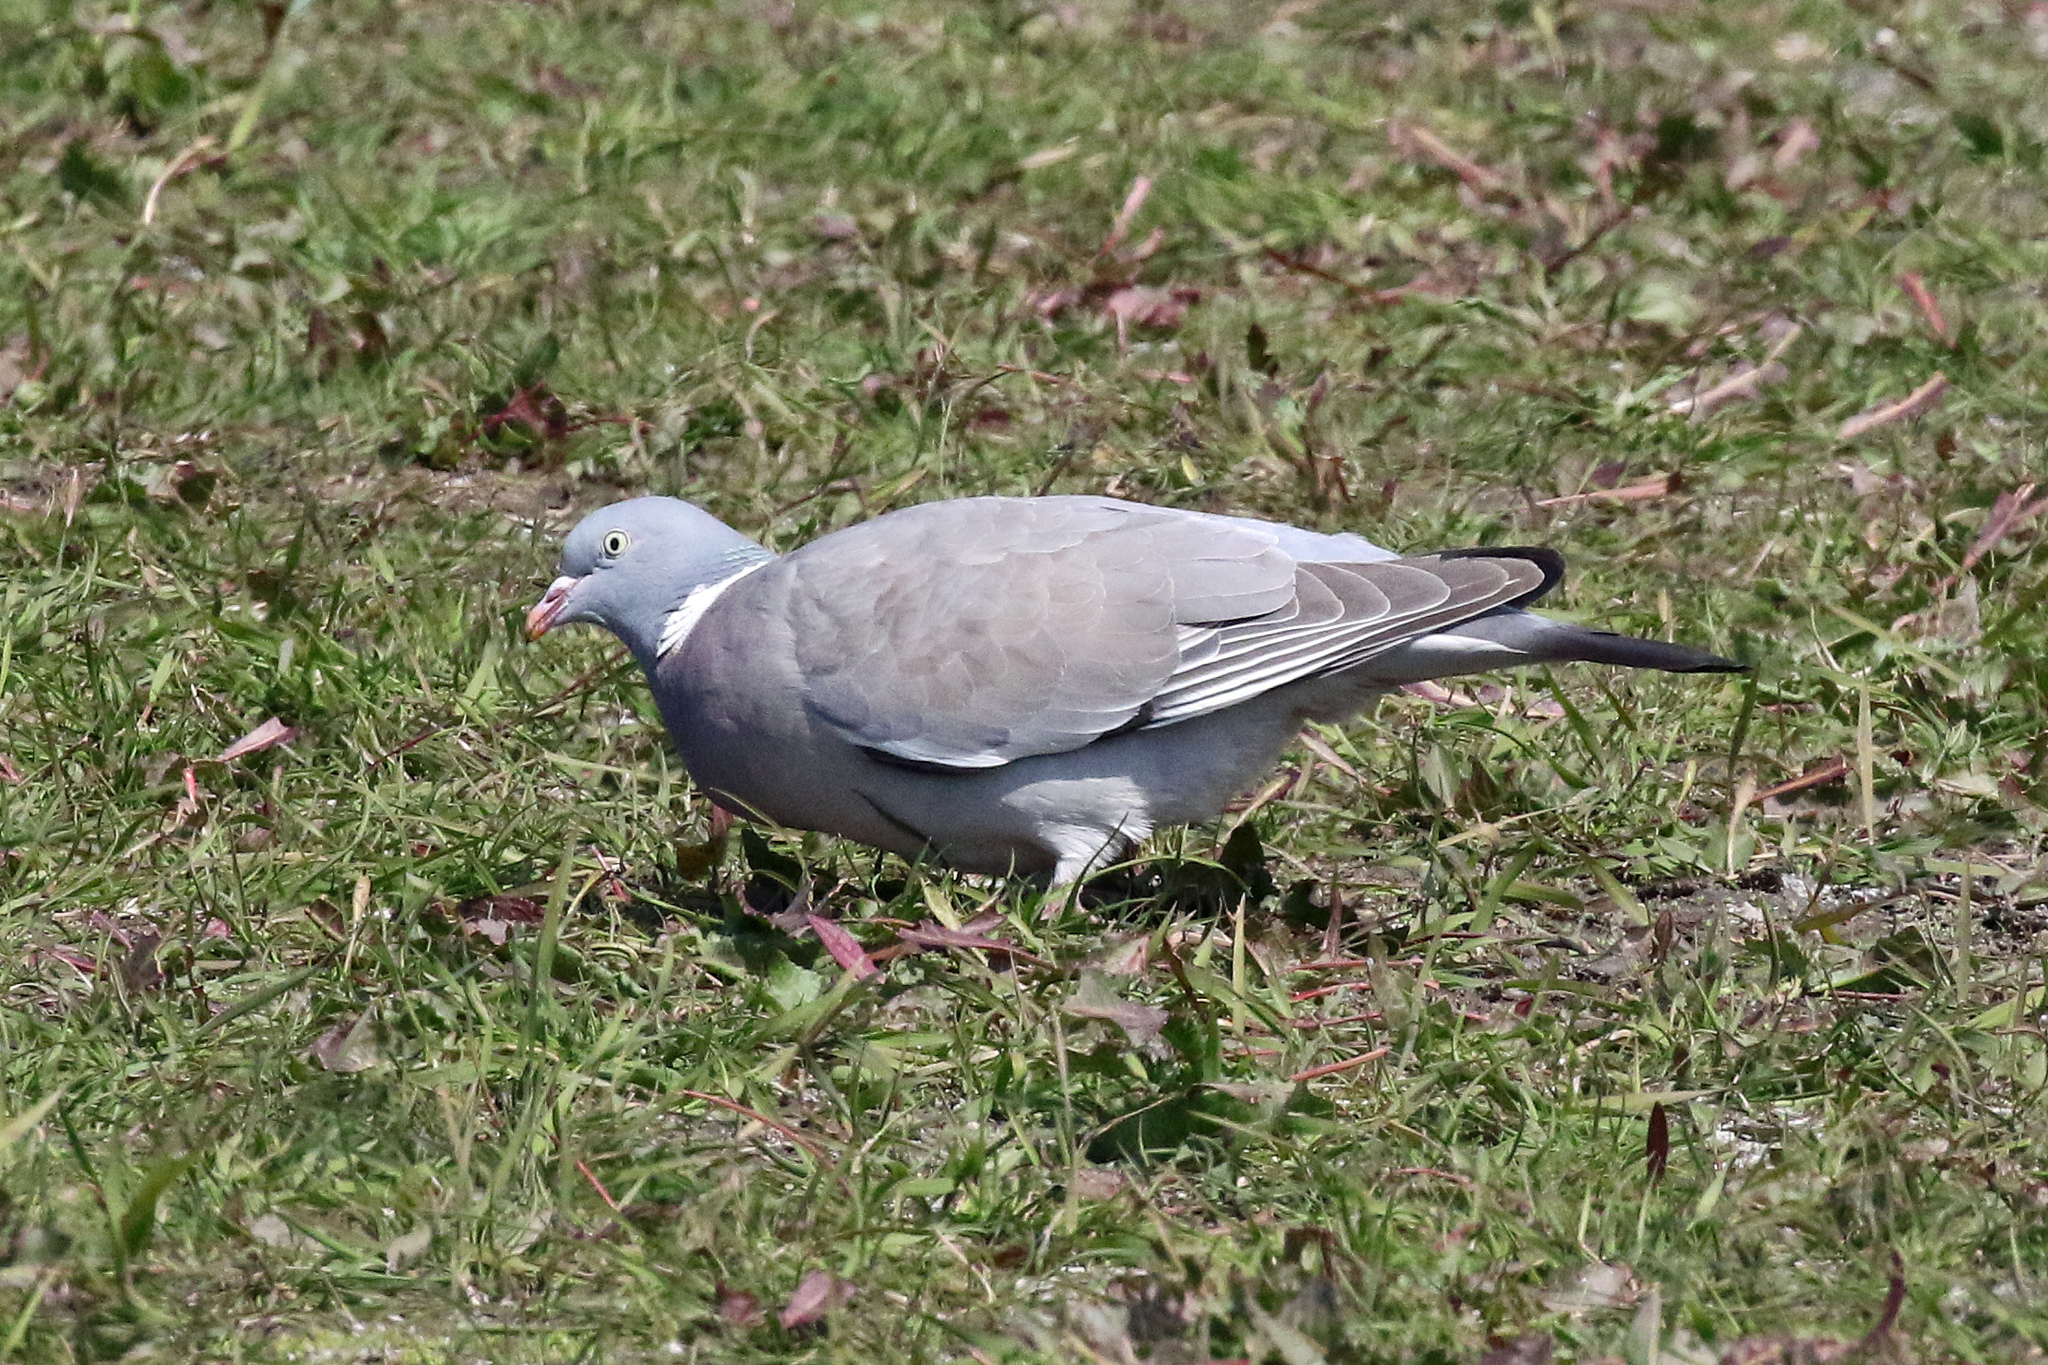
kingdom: Animalia
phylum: Chordata
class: Aves
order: Columbiformes
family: Columbidae
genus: Columba
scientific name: Columba palumbus
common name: Common wood pigeon
